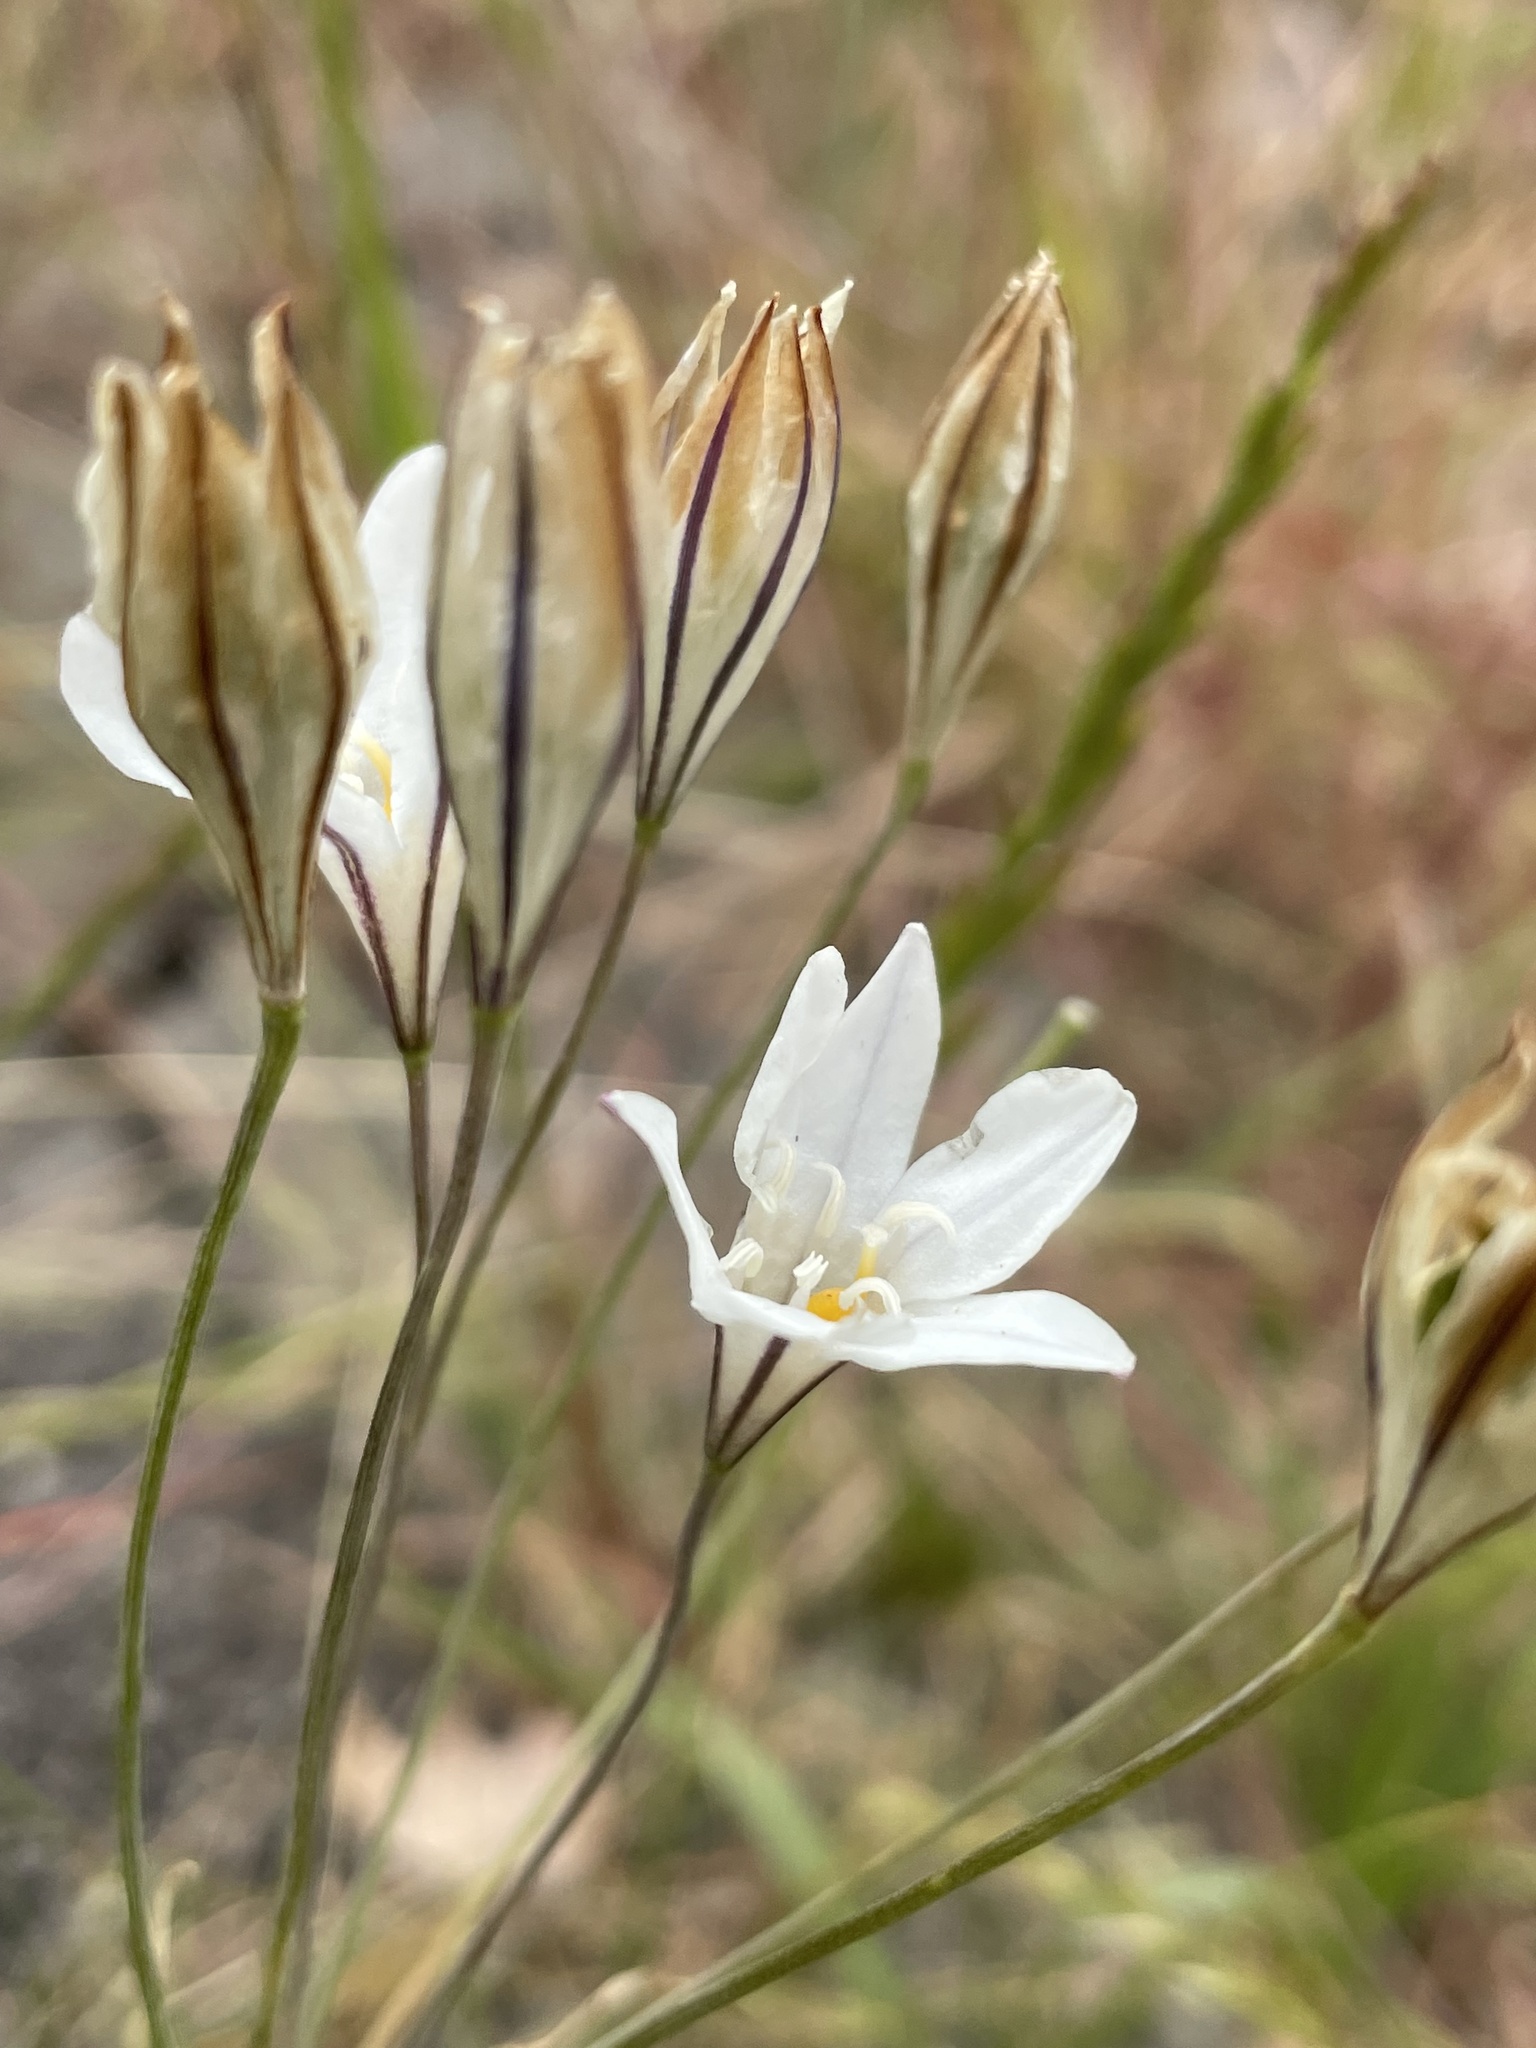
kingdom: Plantae
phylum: Tracheophyta
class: Liliopsida
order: Asparagales
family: Asparagaceae
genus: Triteleia
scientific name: Triteleia peduncularis
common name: Long-ray brodiaea
